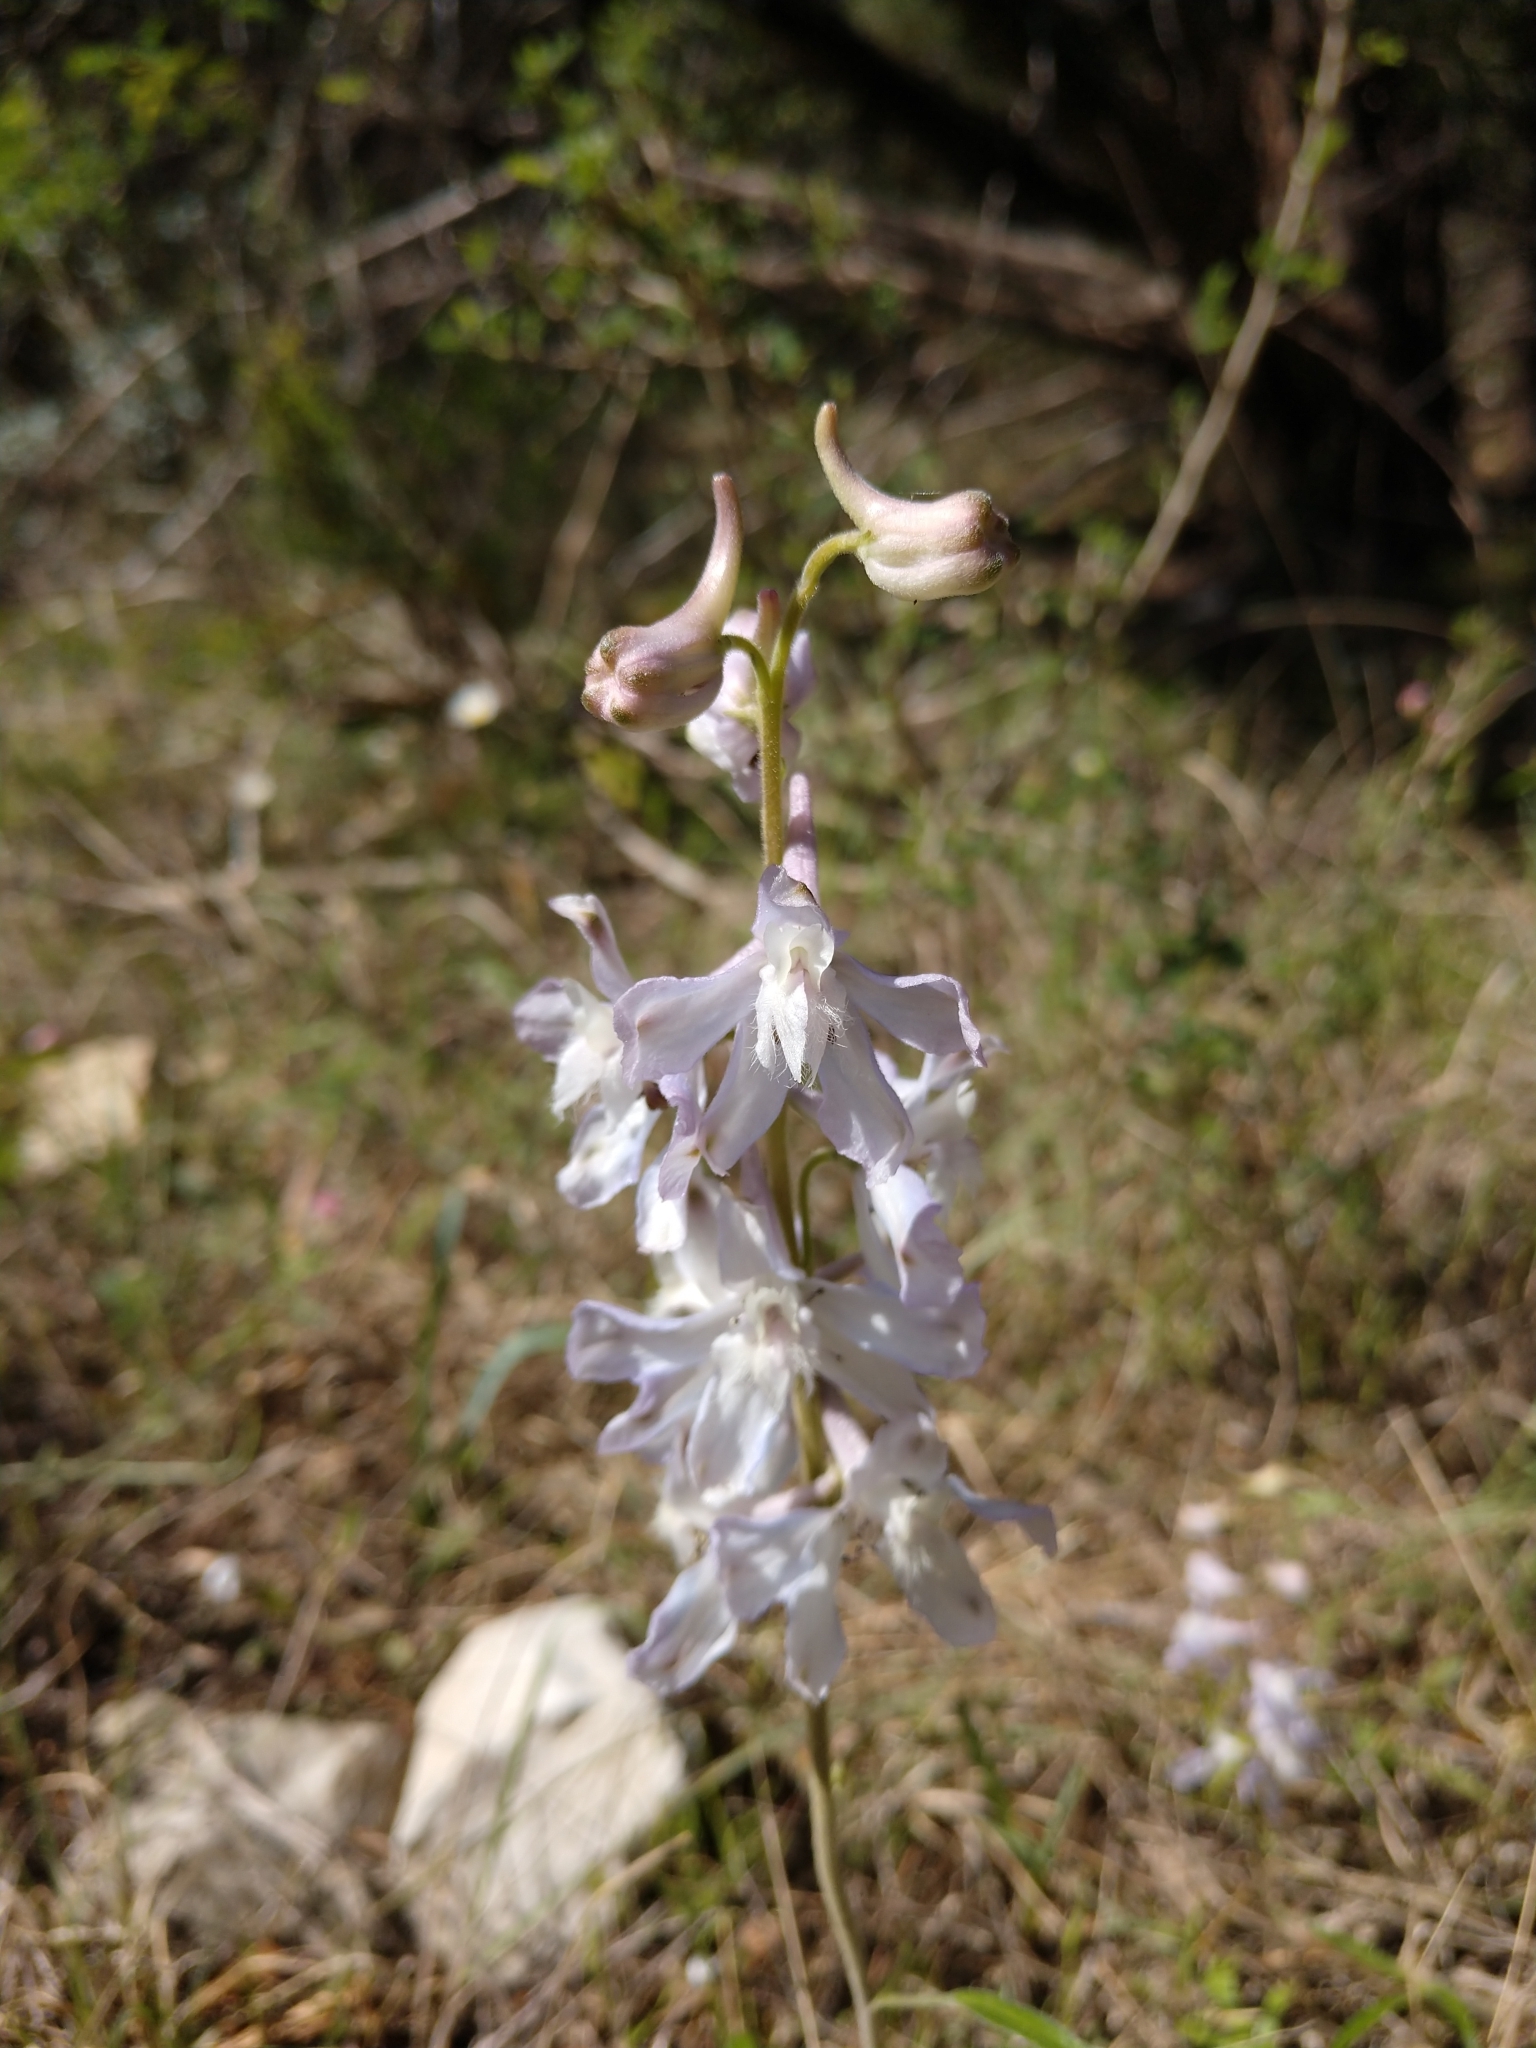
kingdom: Plantae
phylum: Tracheophyta
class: Magnoliopsida
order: Ranunculales
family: Ranunculaceae
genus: Delphinium
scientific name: Delphinium carolinianum
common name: Carolina larkspur
